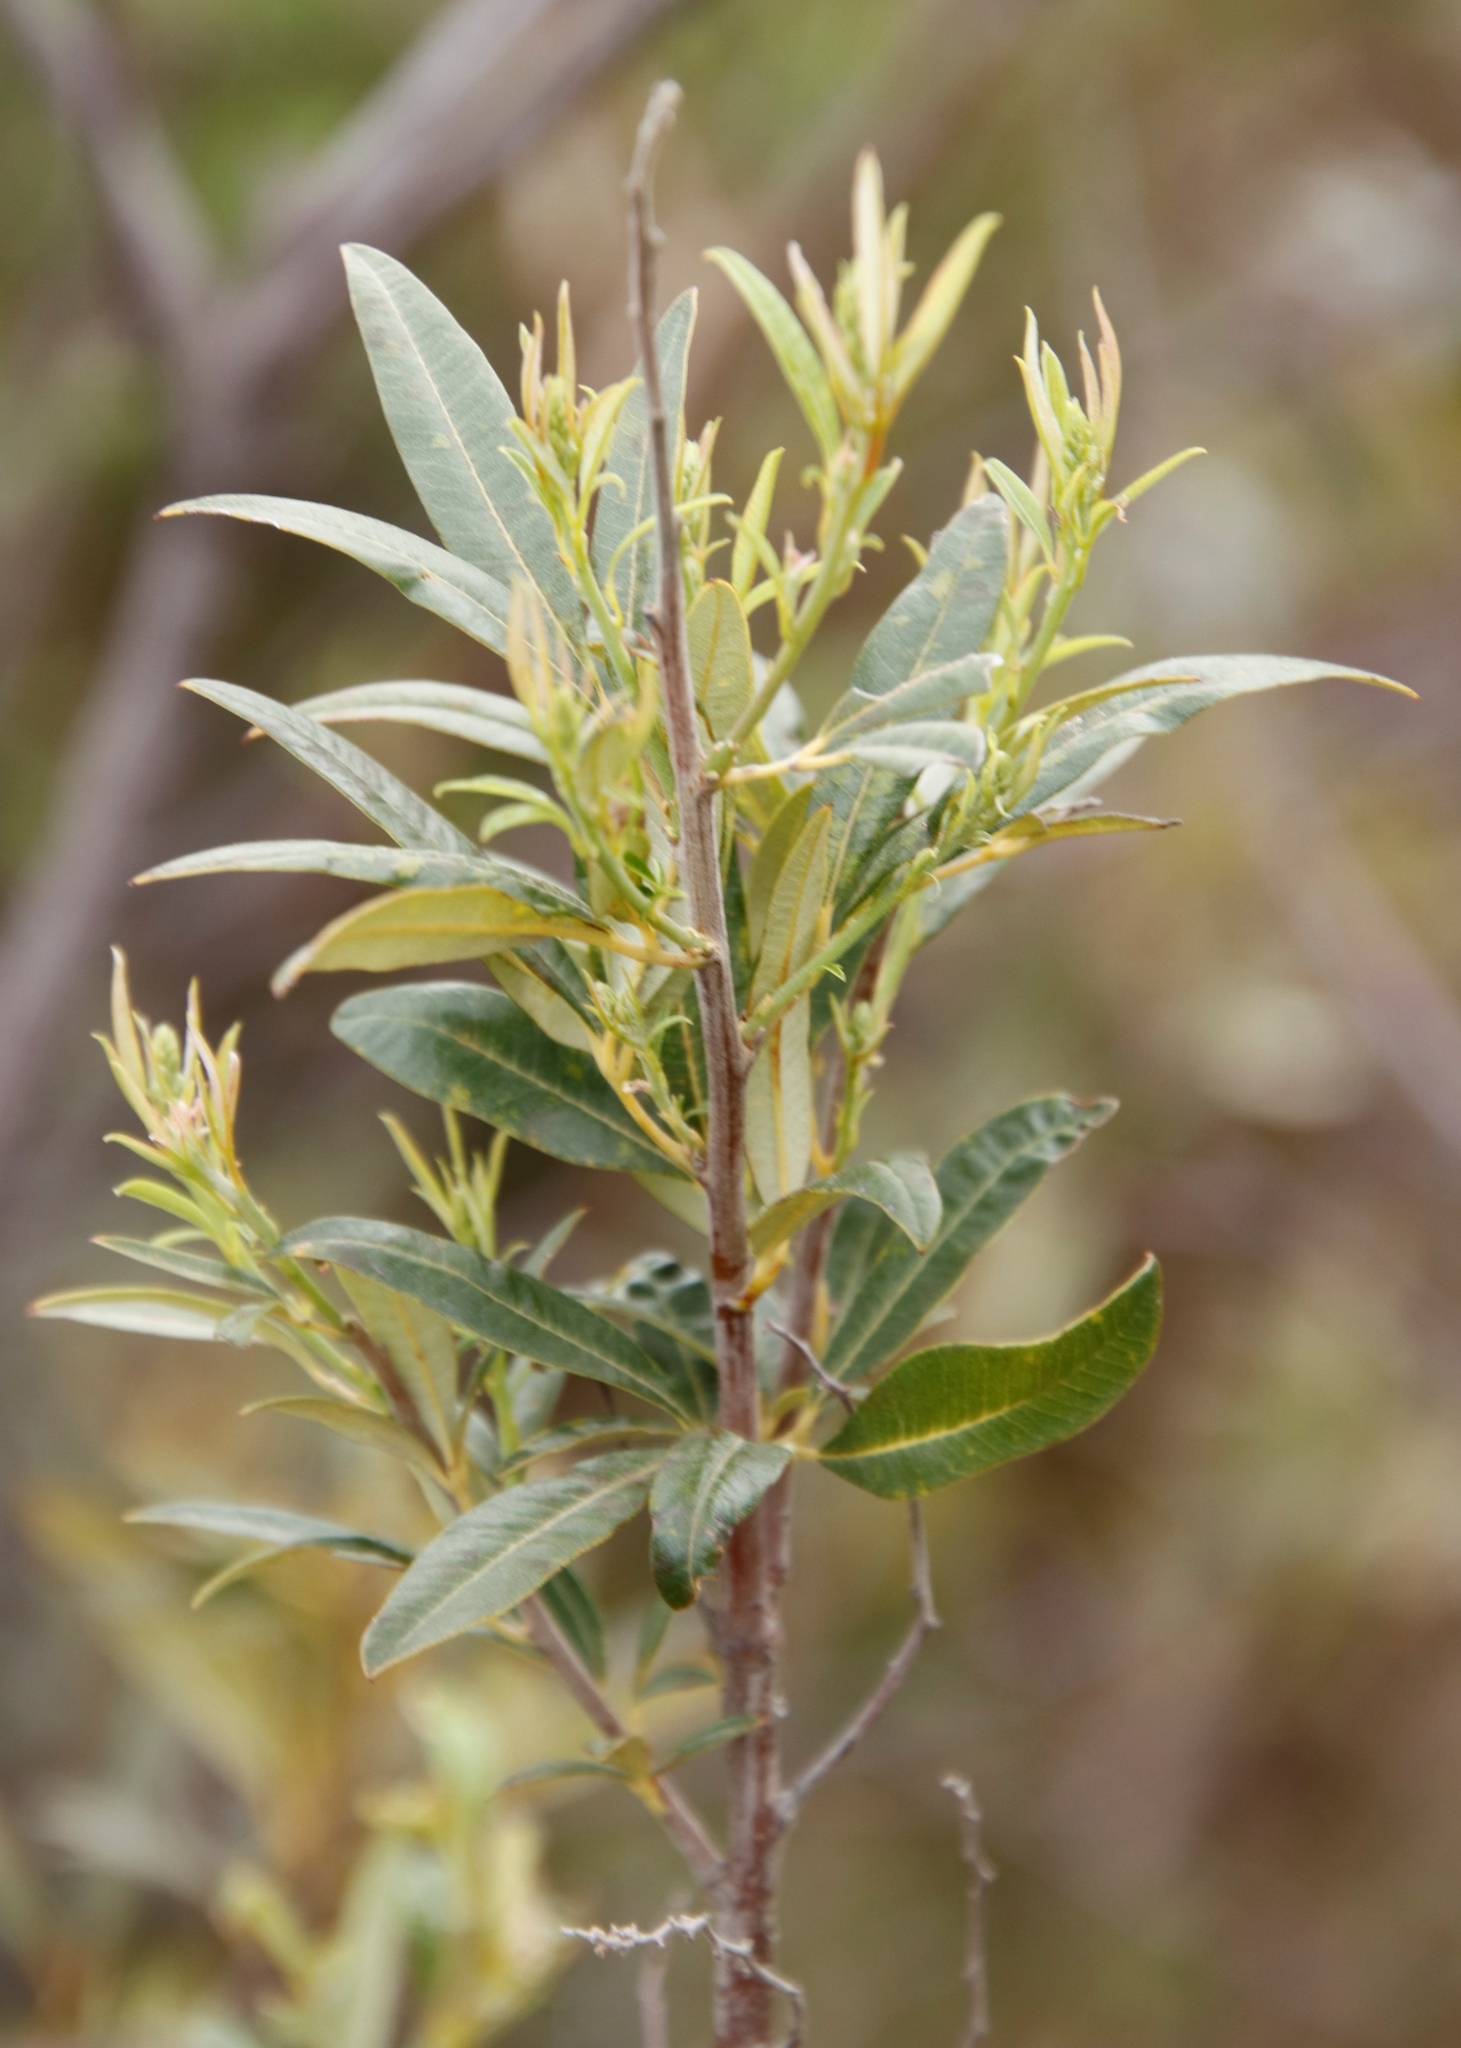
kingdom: Plantae
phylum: Tracheophyta
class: Magnoliopsida
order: Sapindales
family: Anacardiaceae
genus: Searsia
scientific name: Searsia angustifolia
